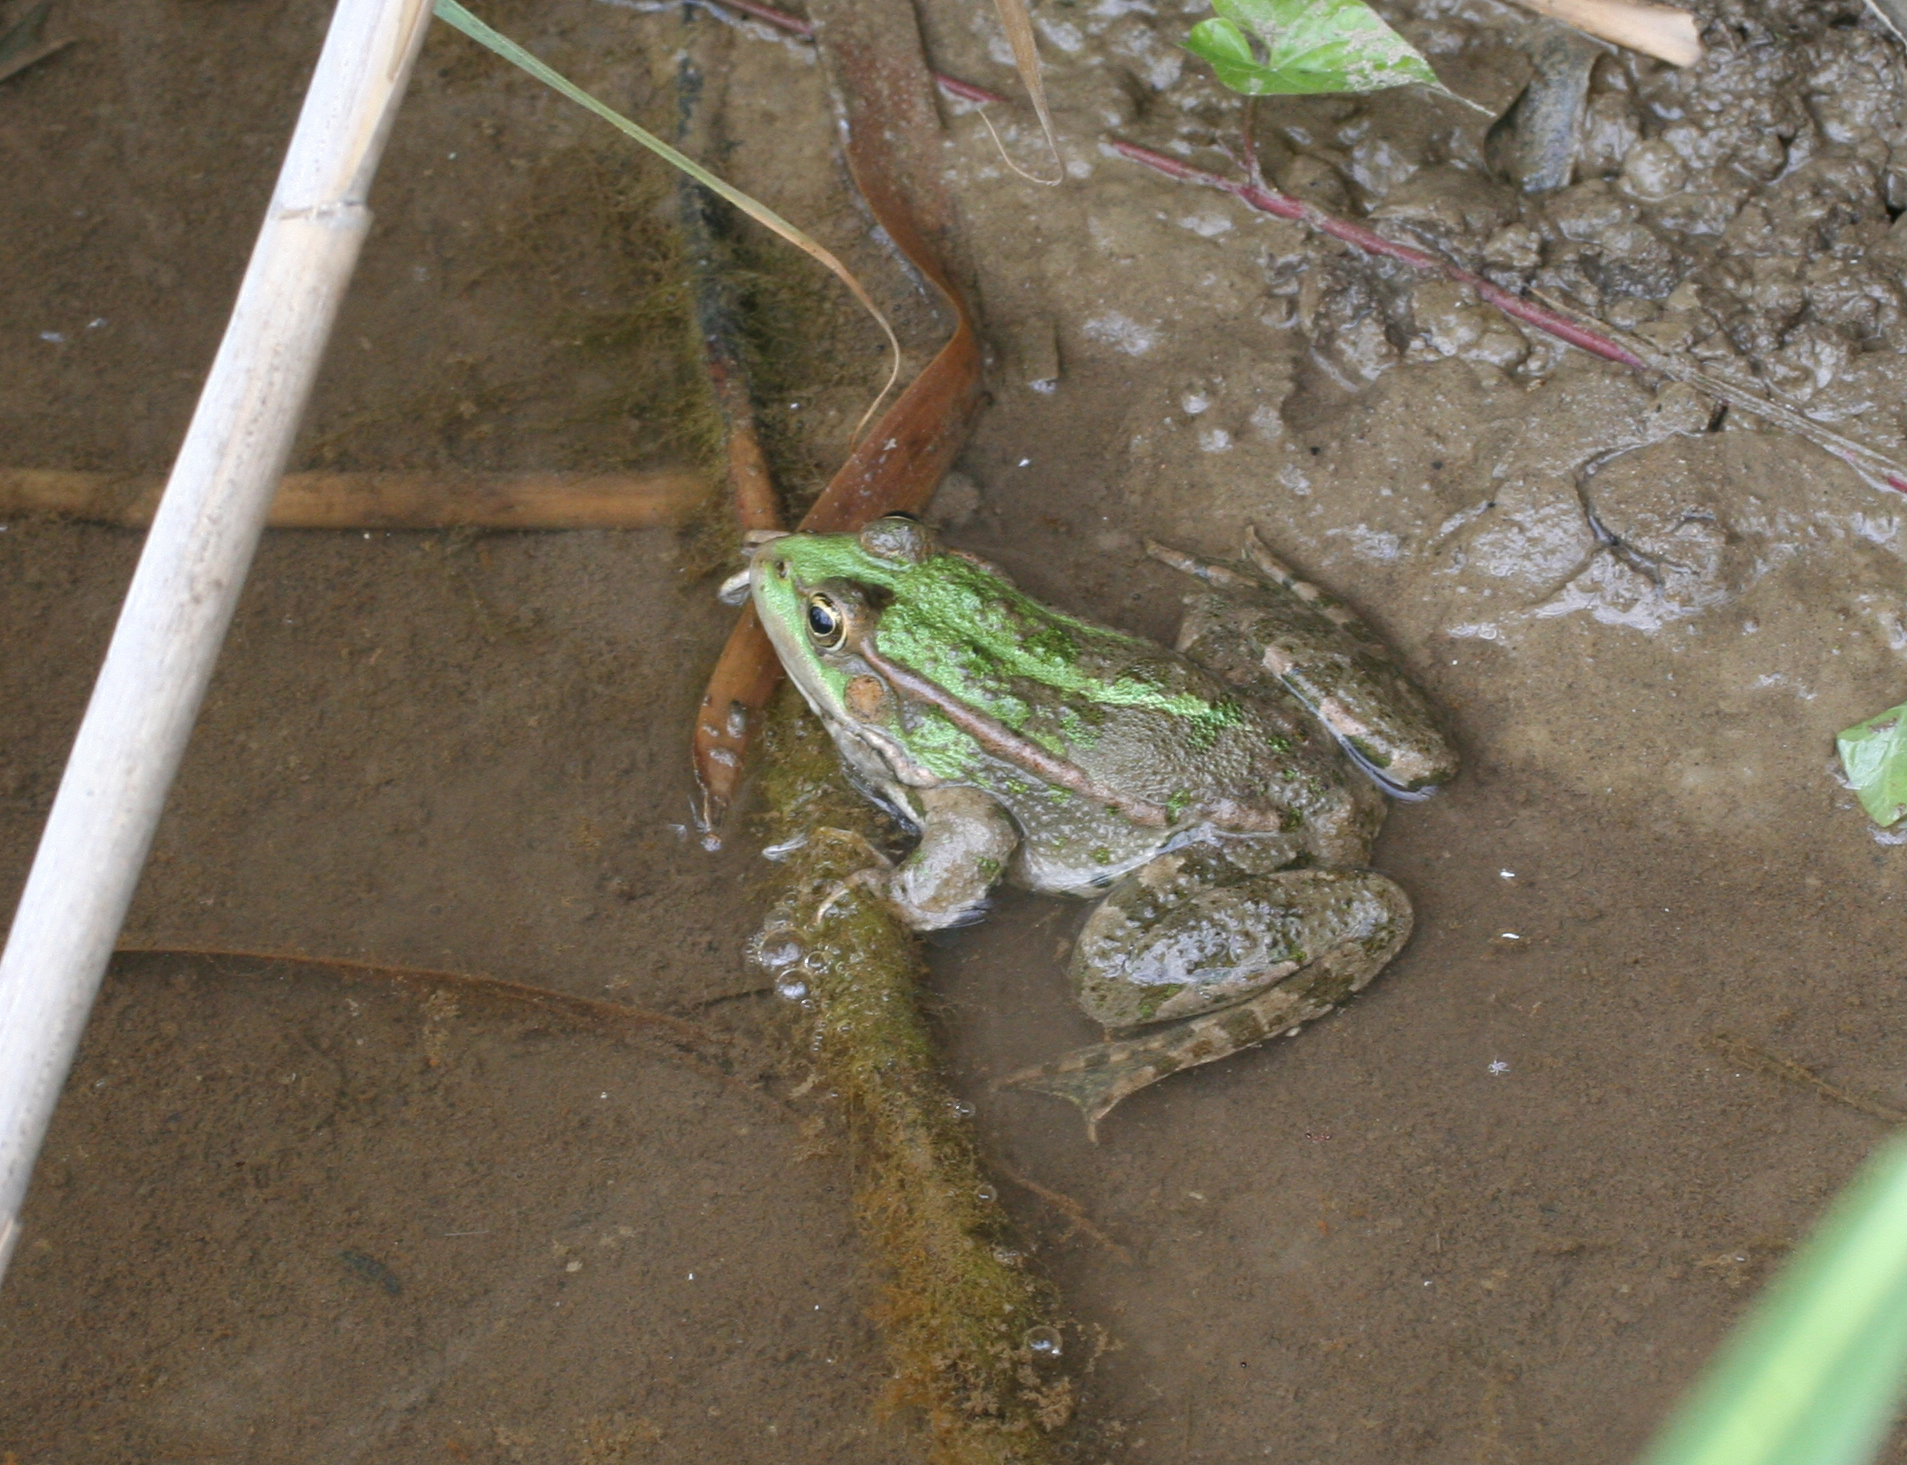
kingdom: Animalia
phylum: Chordata
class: Amphibia
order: Anura
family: Ranidae
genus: Pelophylax
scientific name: Pelophylax ridibundus
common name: Marsh frog
